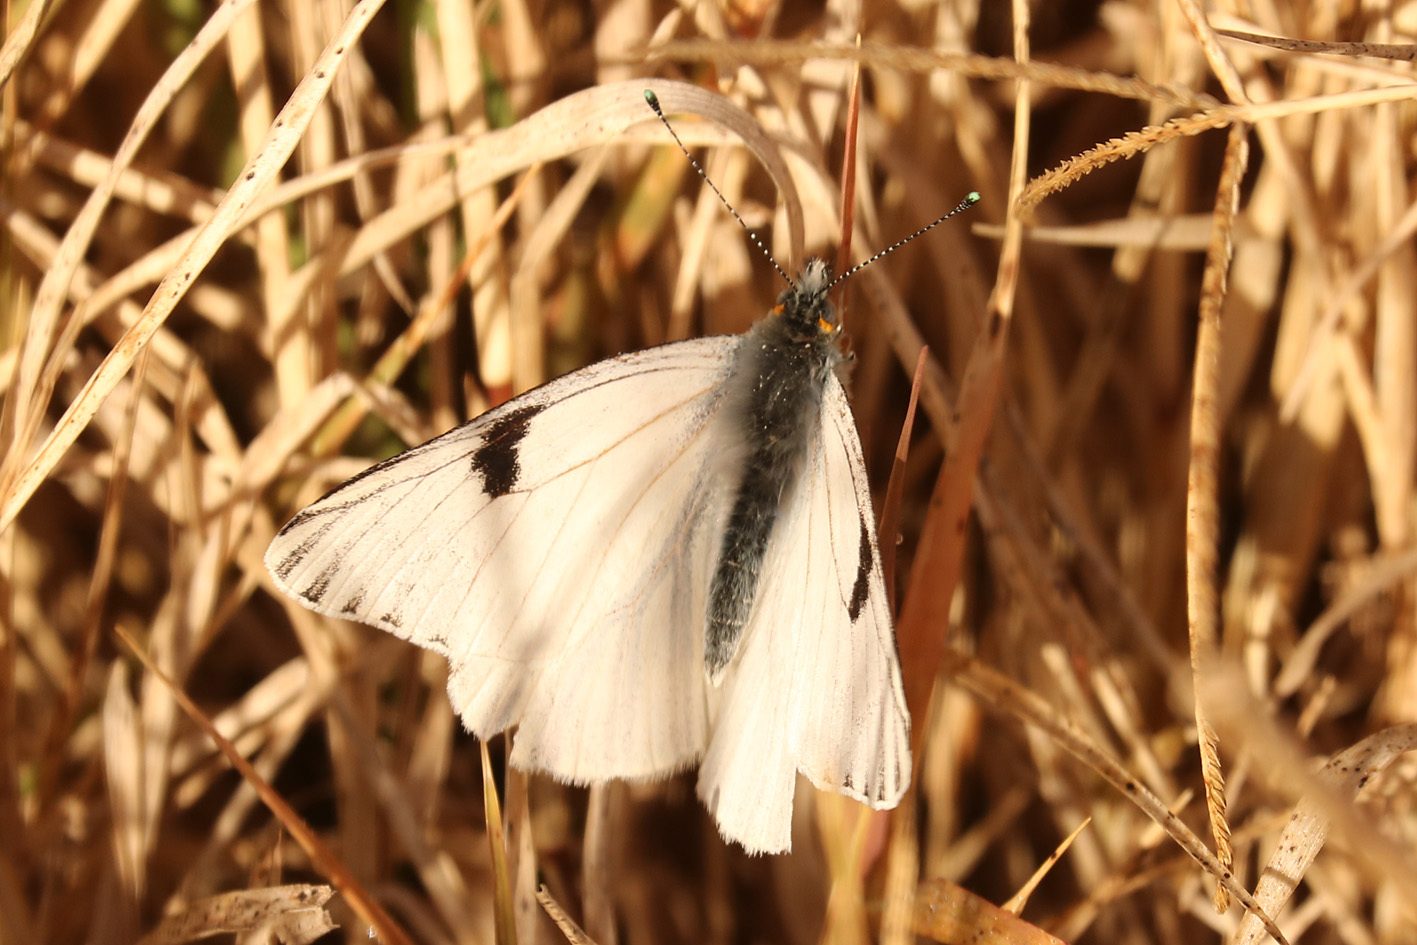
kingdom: Animalia
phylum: Arthropoda
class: Insecta
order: Lepidoptera
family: Pieridae
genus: Tatochila
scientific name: Tatochila mercedis
